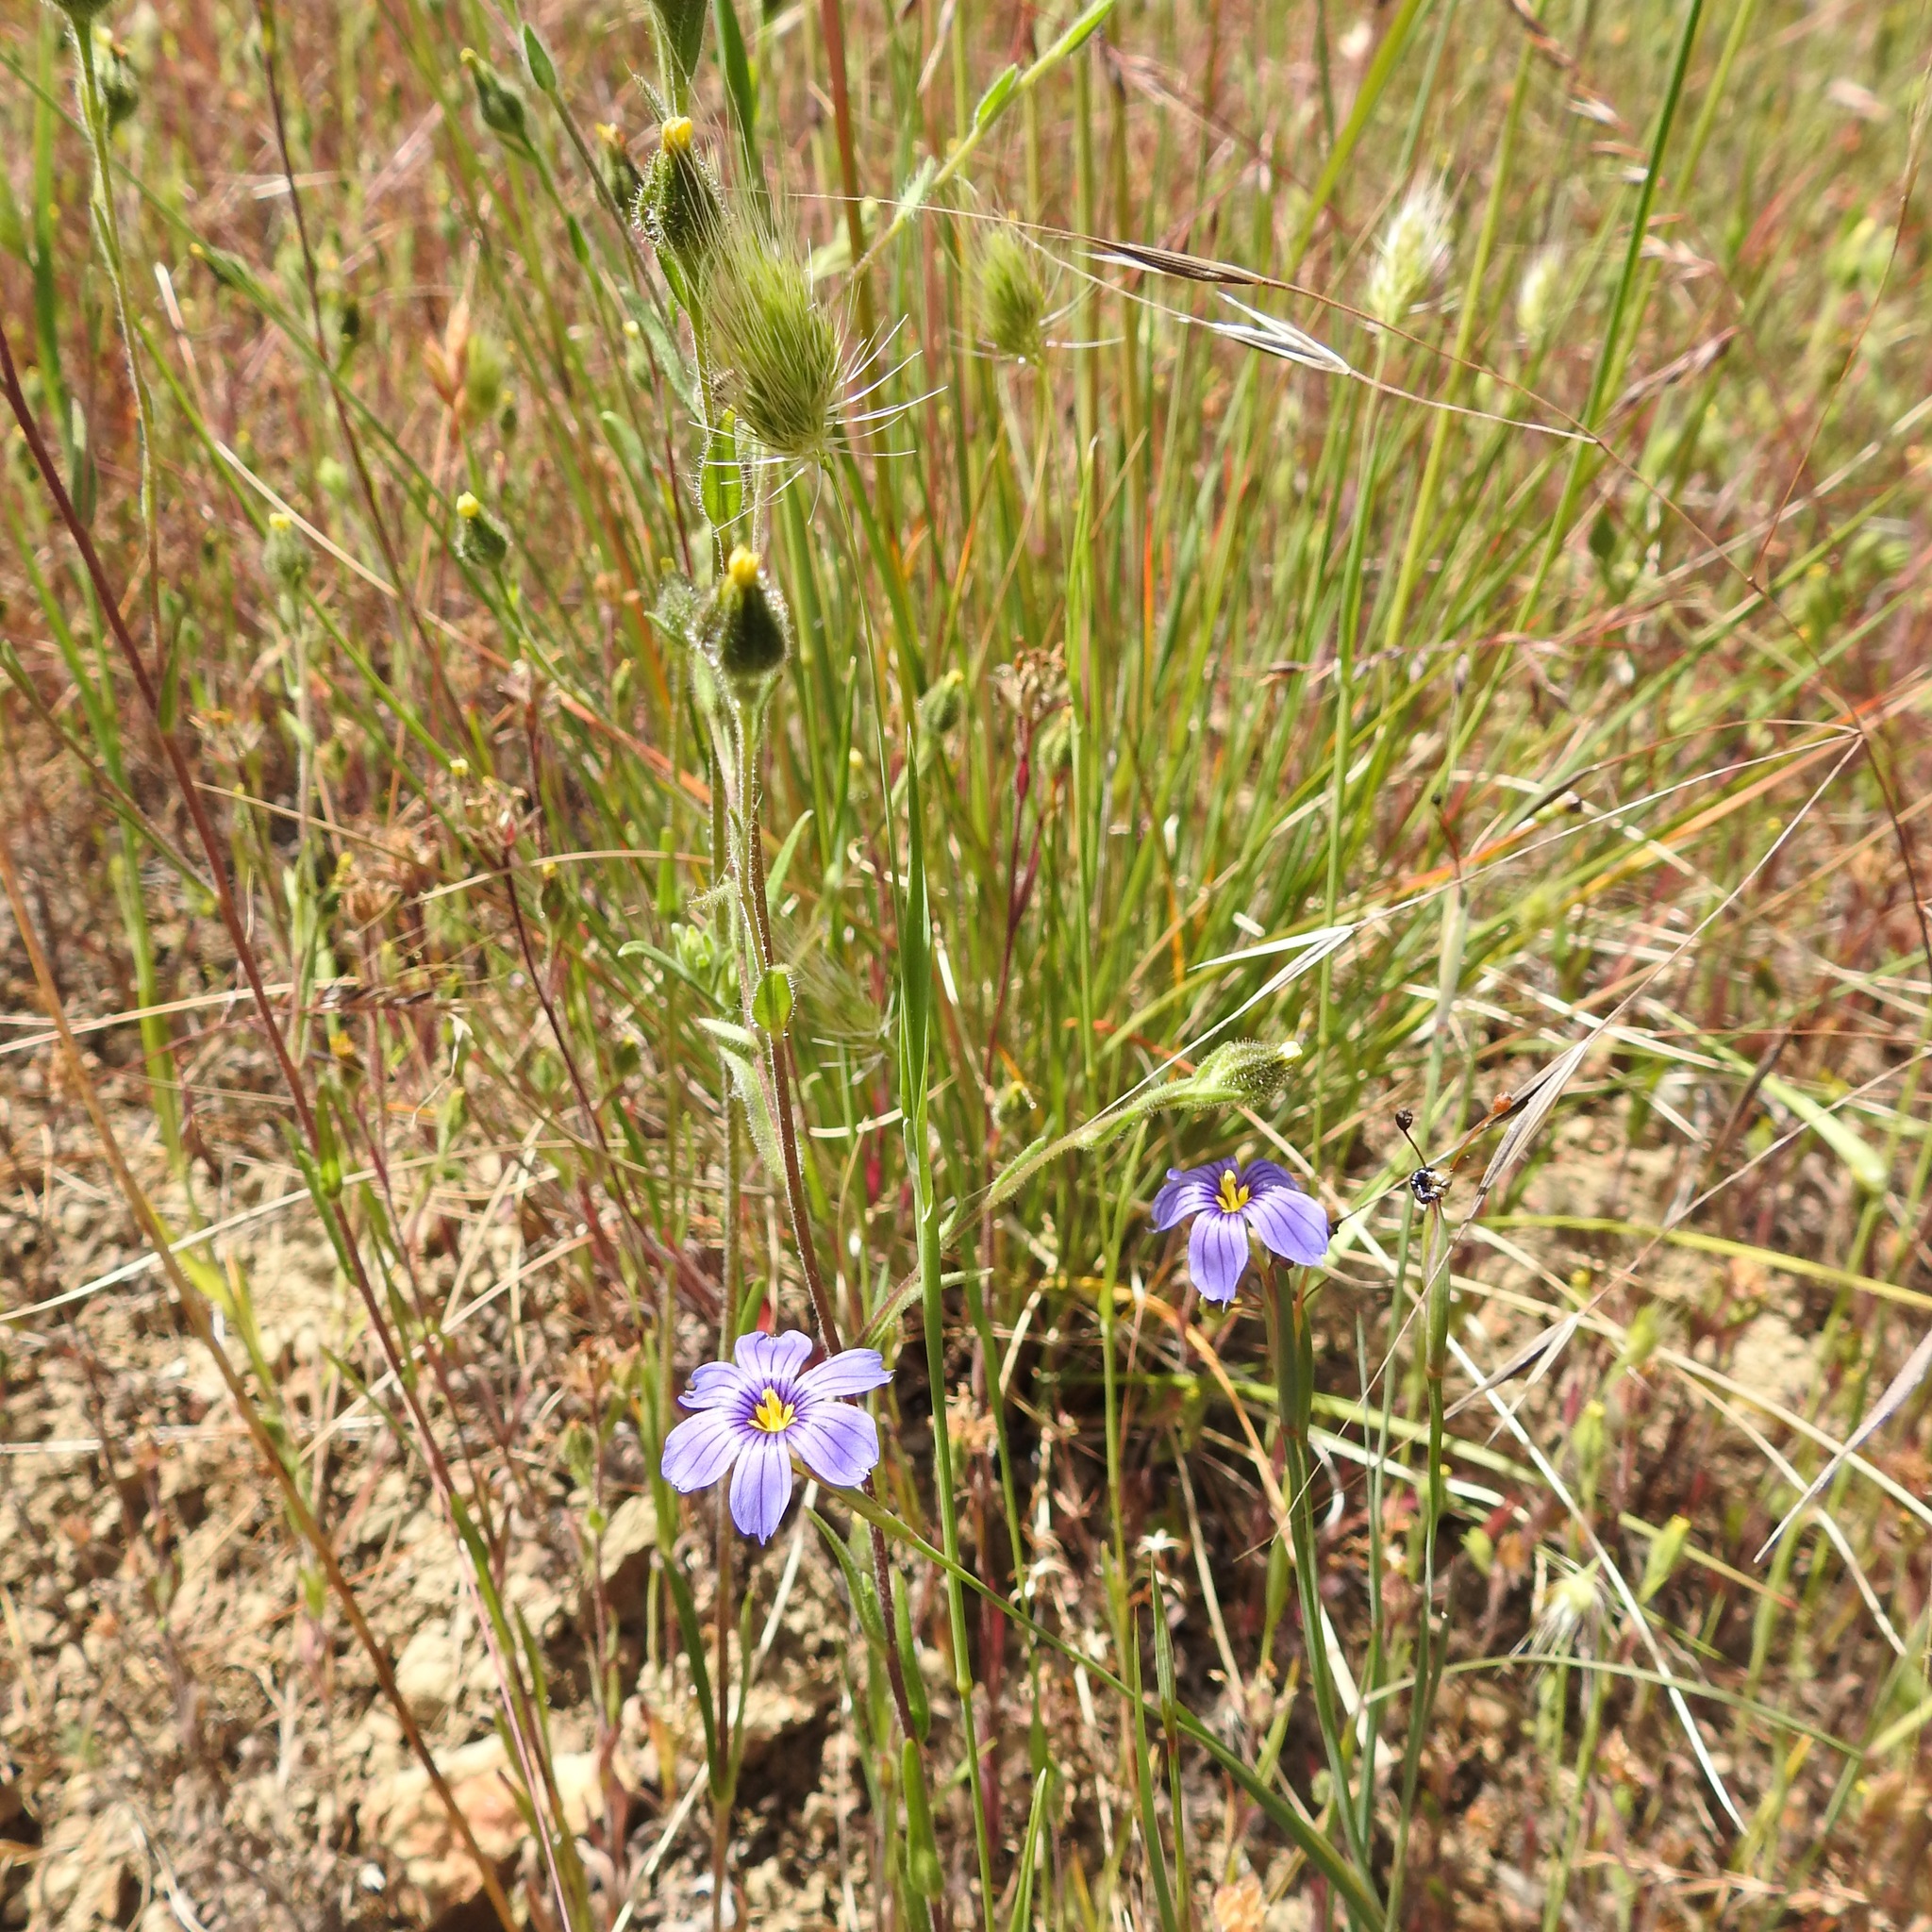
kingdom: Plantae
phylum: Tracheophyta
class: Liliopsida
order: Asparagales
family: Iridaceae
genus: Sisyrinchium
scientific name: Sisyrinchium bellum
